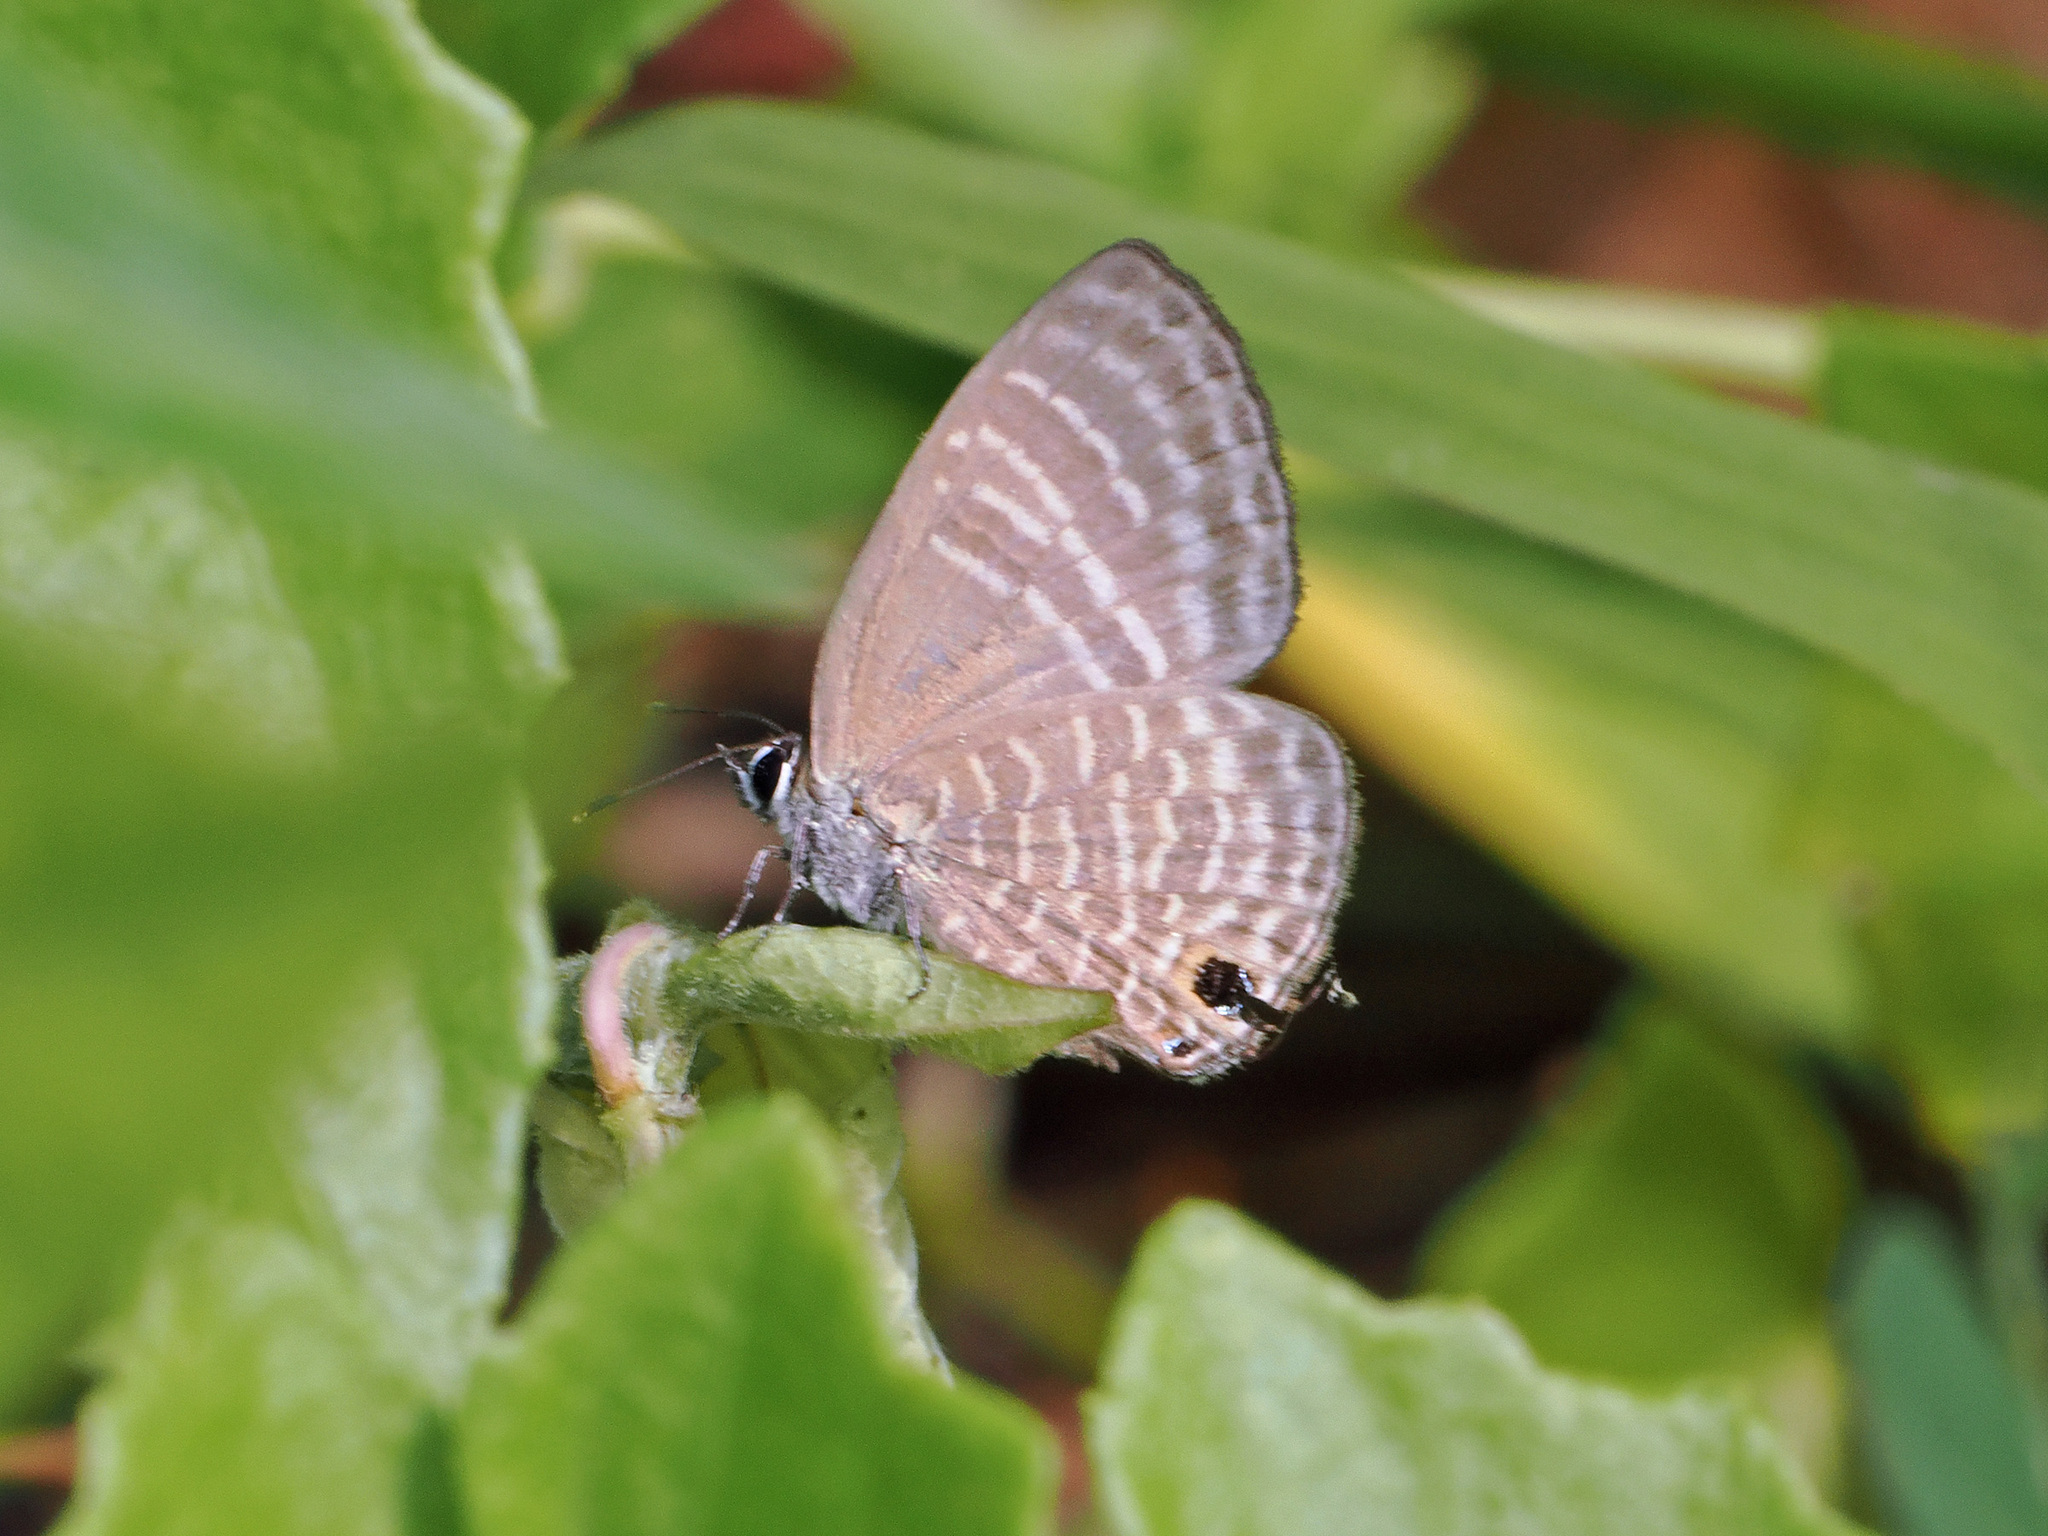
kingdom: Animalia
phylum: Arthropoda
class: Insecta
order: Lepidoptera
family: Lycaenidae
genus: Nacaduba
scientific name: Nacaduba pactolus
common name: Large fourline blue
